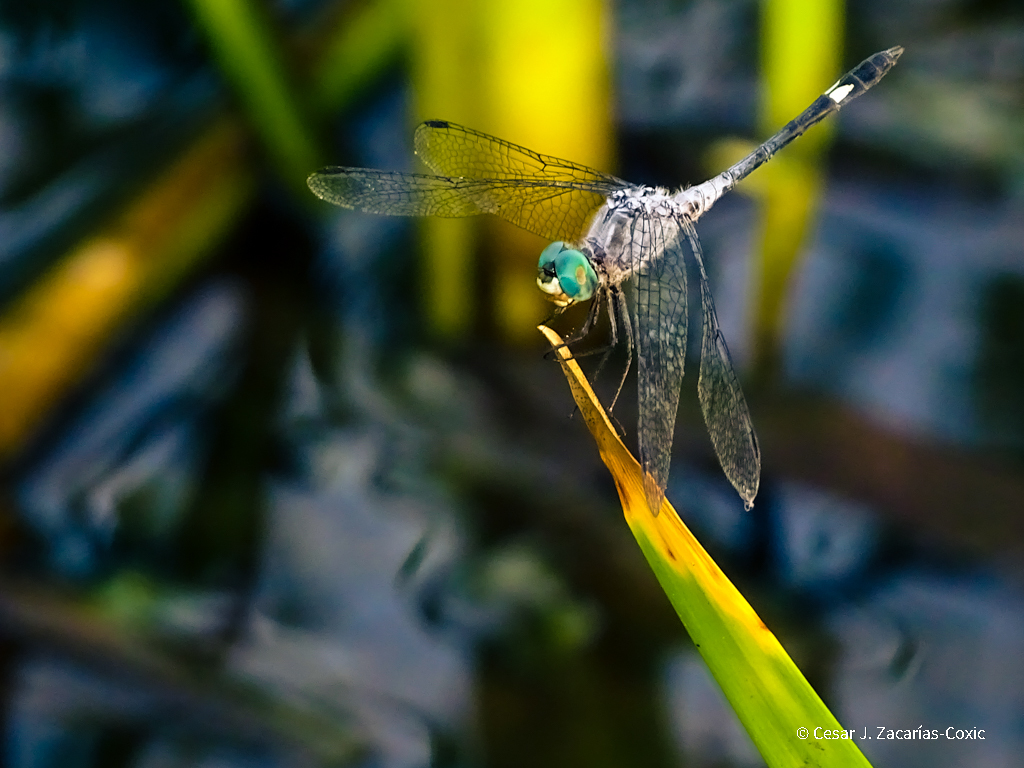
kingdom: Animalia
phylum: Arthropoda
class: Insecta
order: Odonata
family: Libellulidae
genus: Micrathyria
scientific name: Micrathyria aequalis
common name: Spot-tailed dasher
